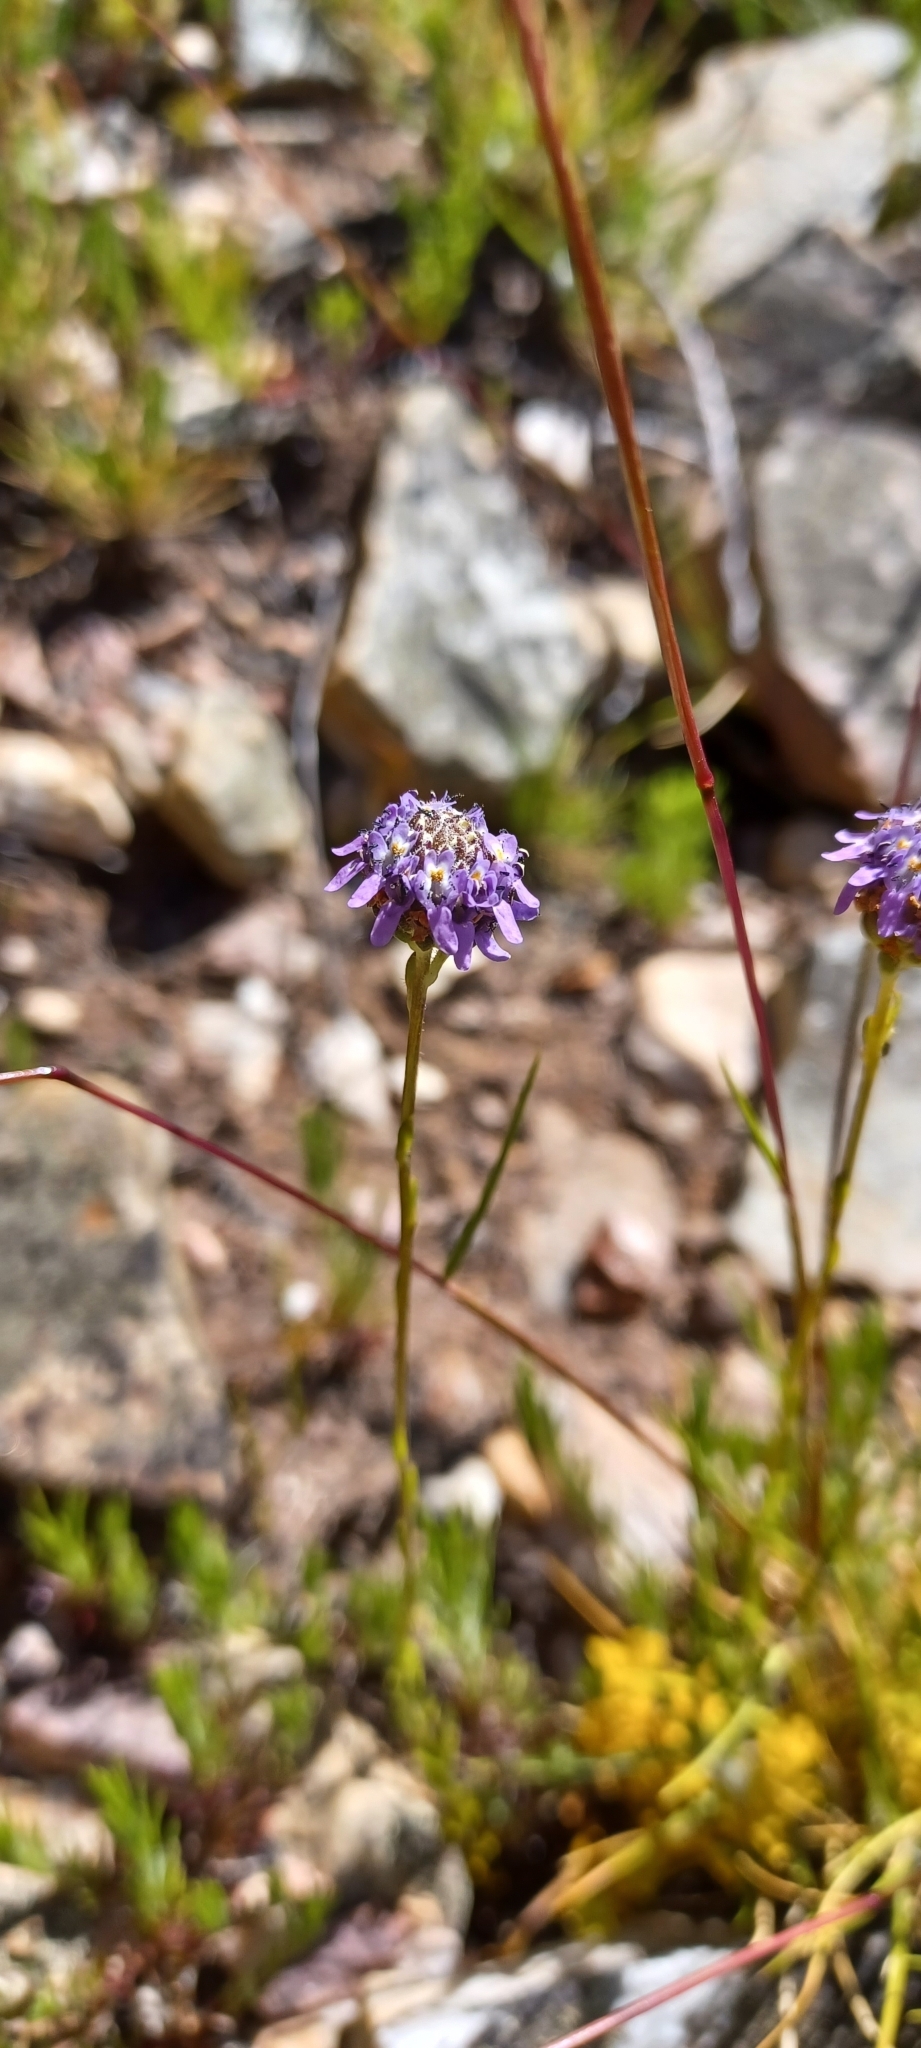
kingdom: Plantae
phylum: Tracheophyta
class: Magnoliopsida
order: Lamiales
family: Scrophulariaceae
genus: Phyllopodium
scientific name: Phyllopodium alpinum
